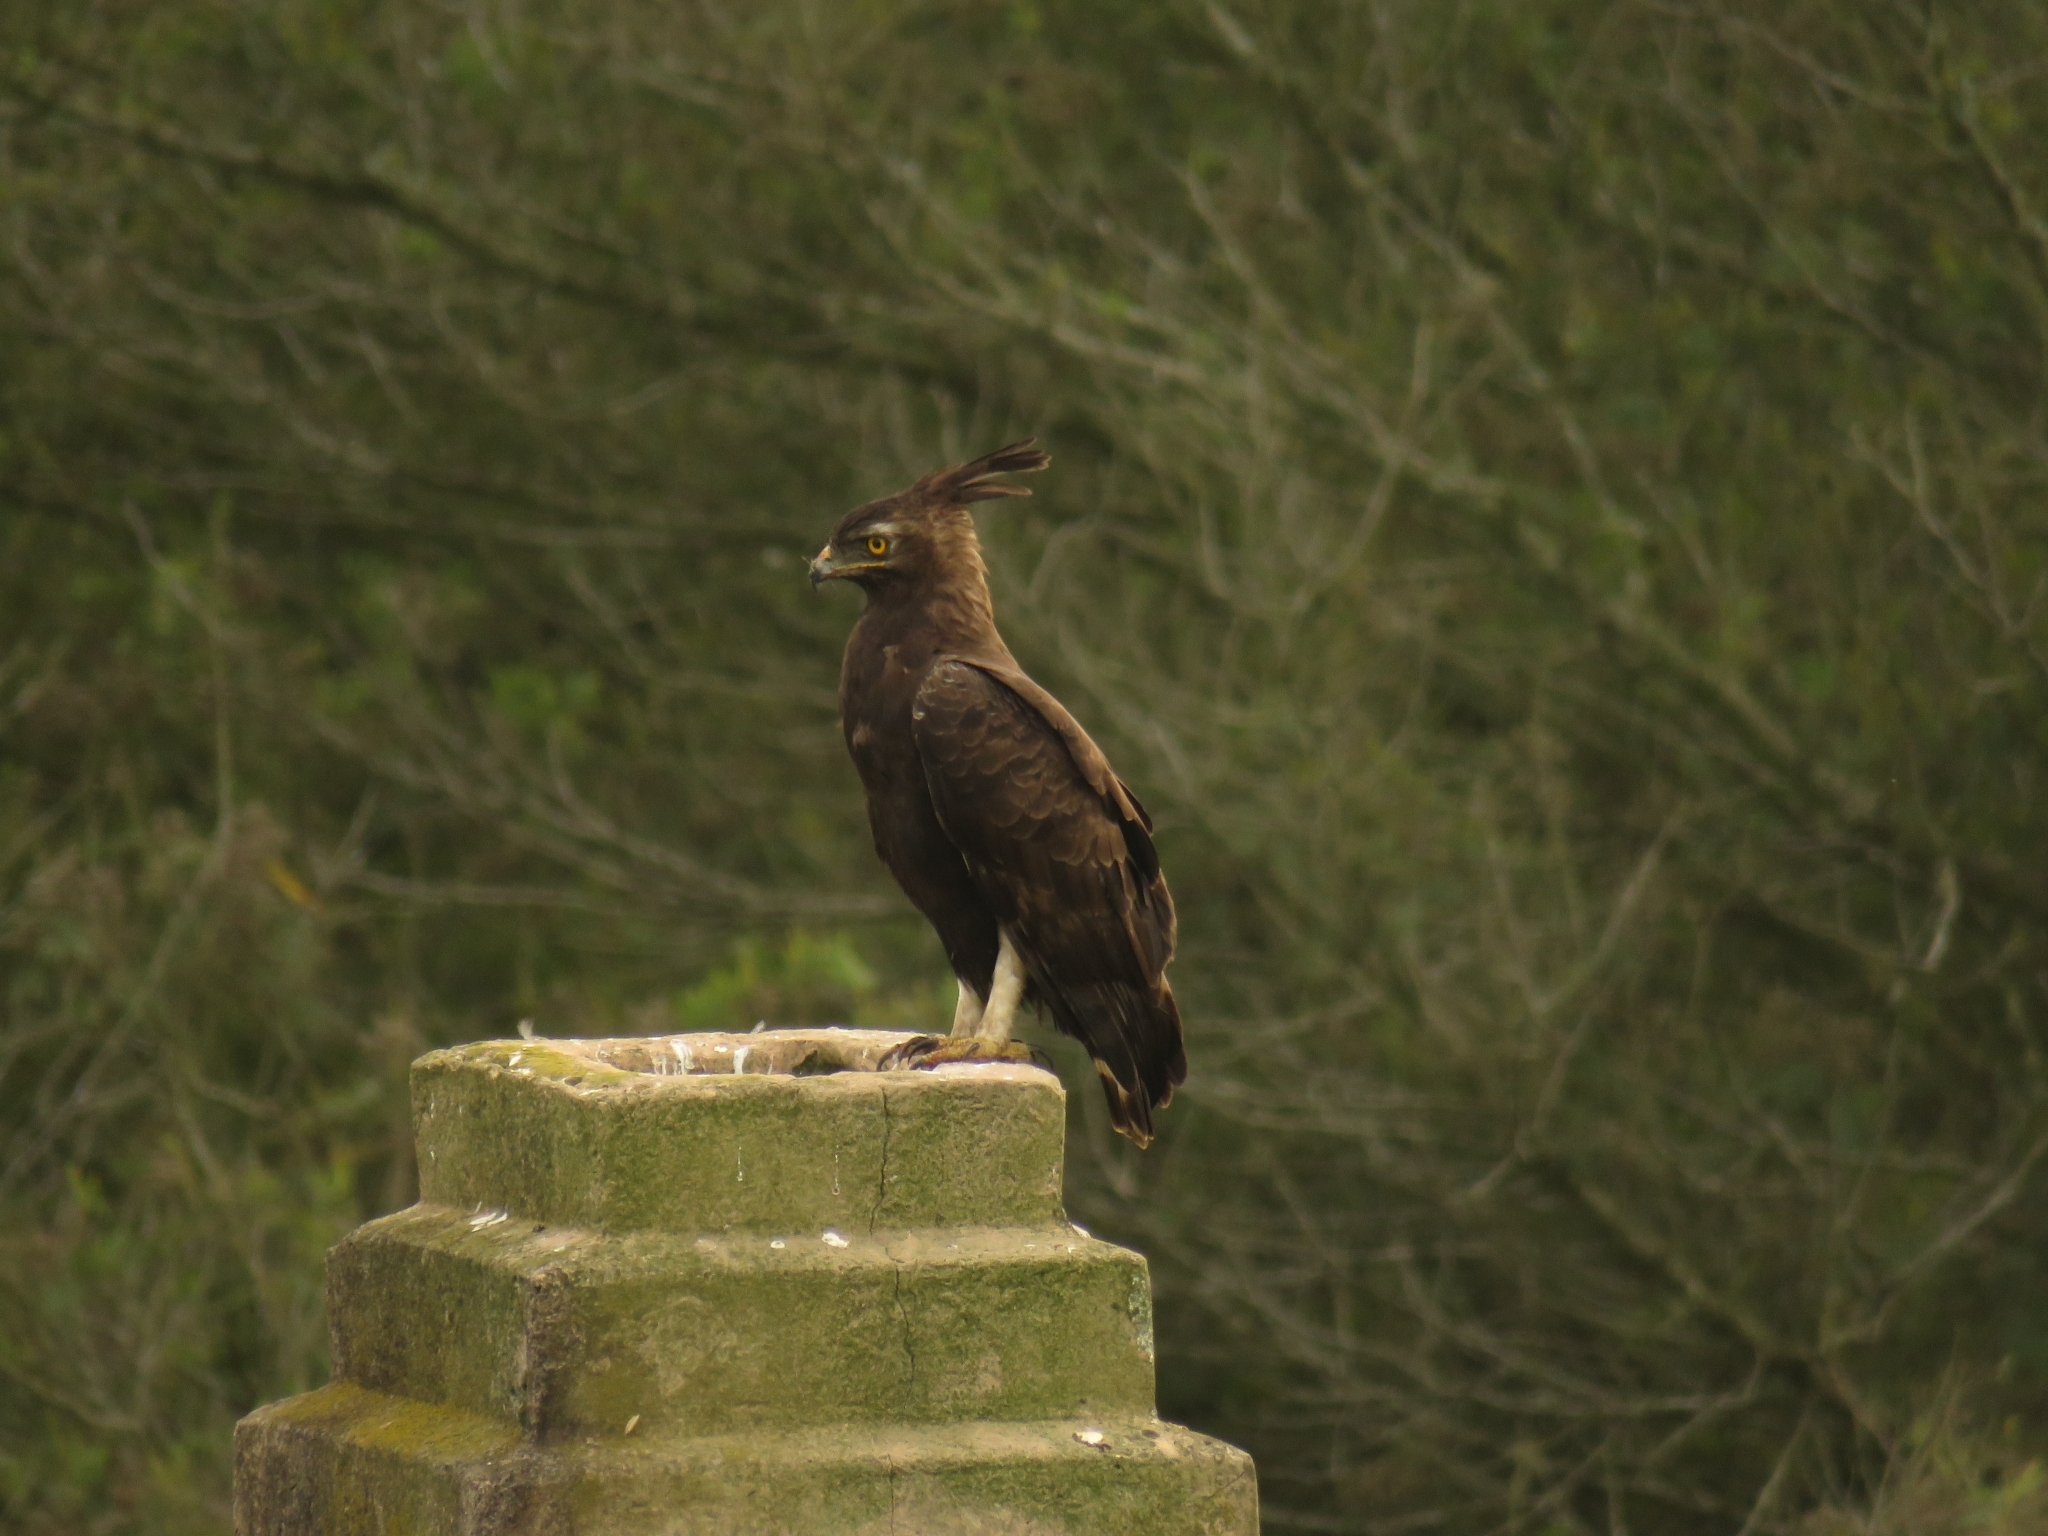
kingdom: Animalia
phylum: Chordata
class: Aves
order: Accipitriformes
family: Accipitridae
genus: Lophaetus
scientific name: Lophaetus occipitalis
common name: Long-crested eagle
